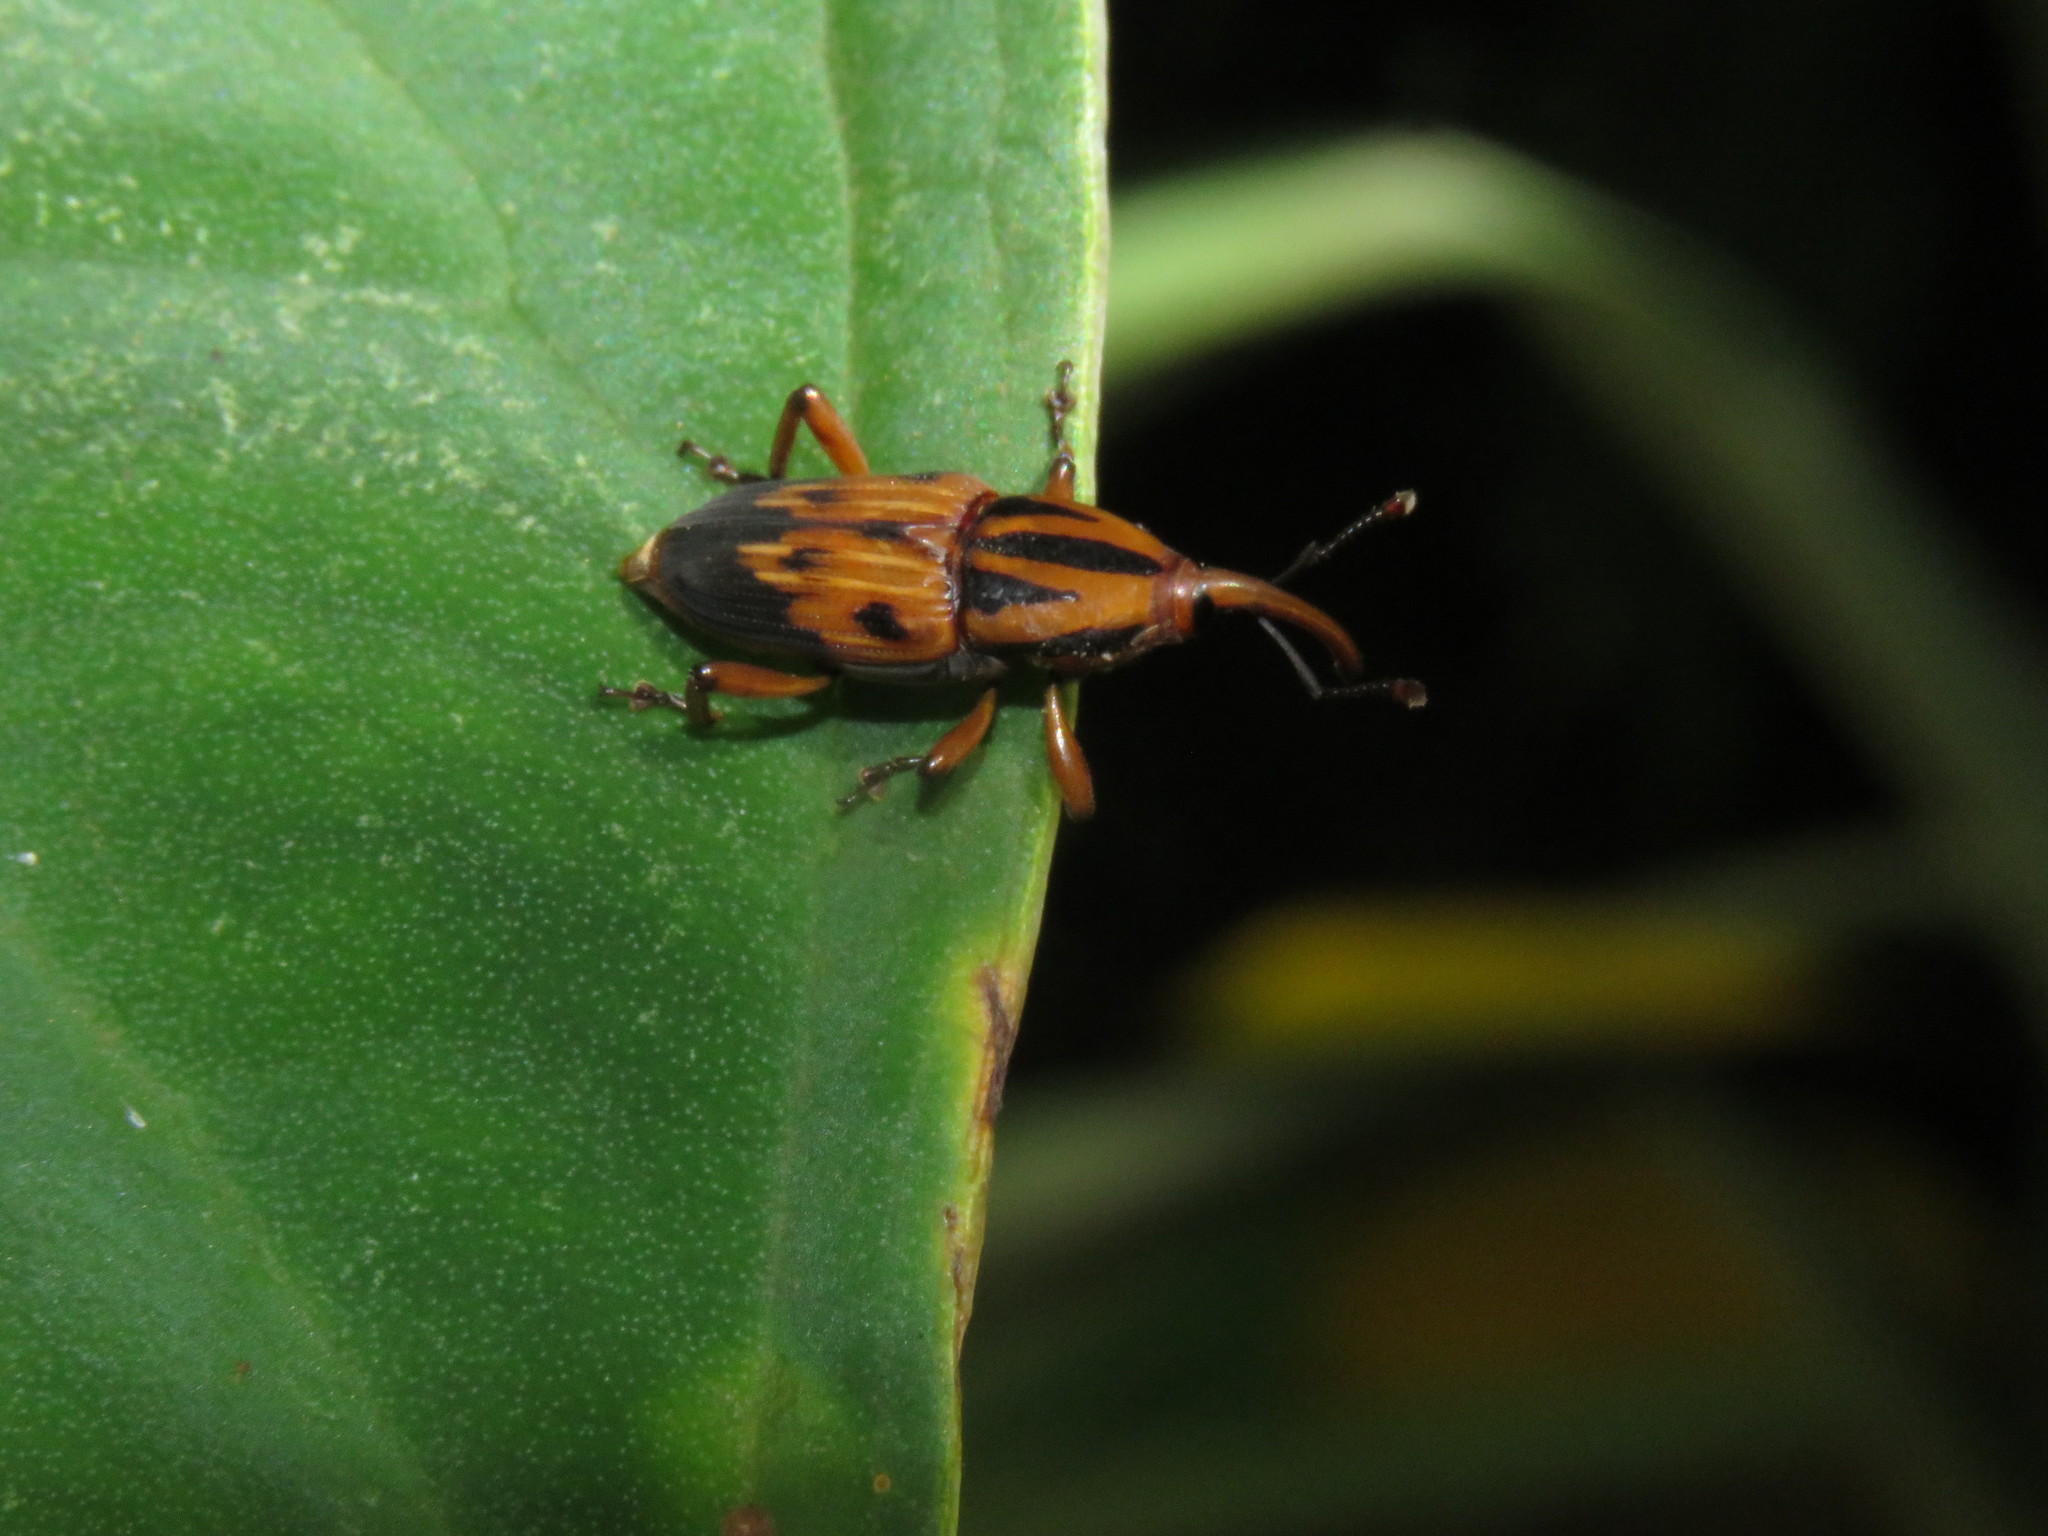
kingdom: Animalia
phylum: Arthropoda
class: Insecta
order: Coleoptera
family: Dryophthoridae
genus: Metamasius
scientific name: Metamasius hemipterus
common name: Weevil
